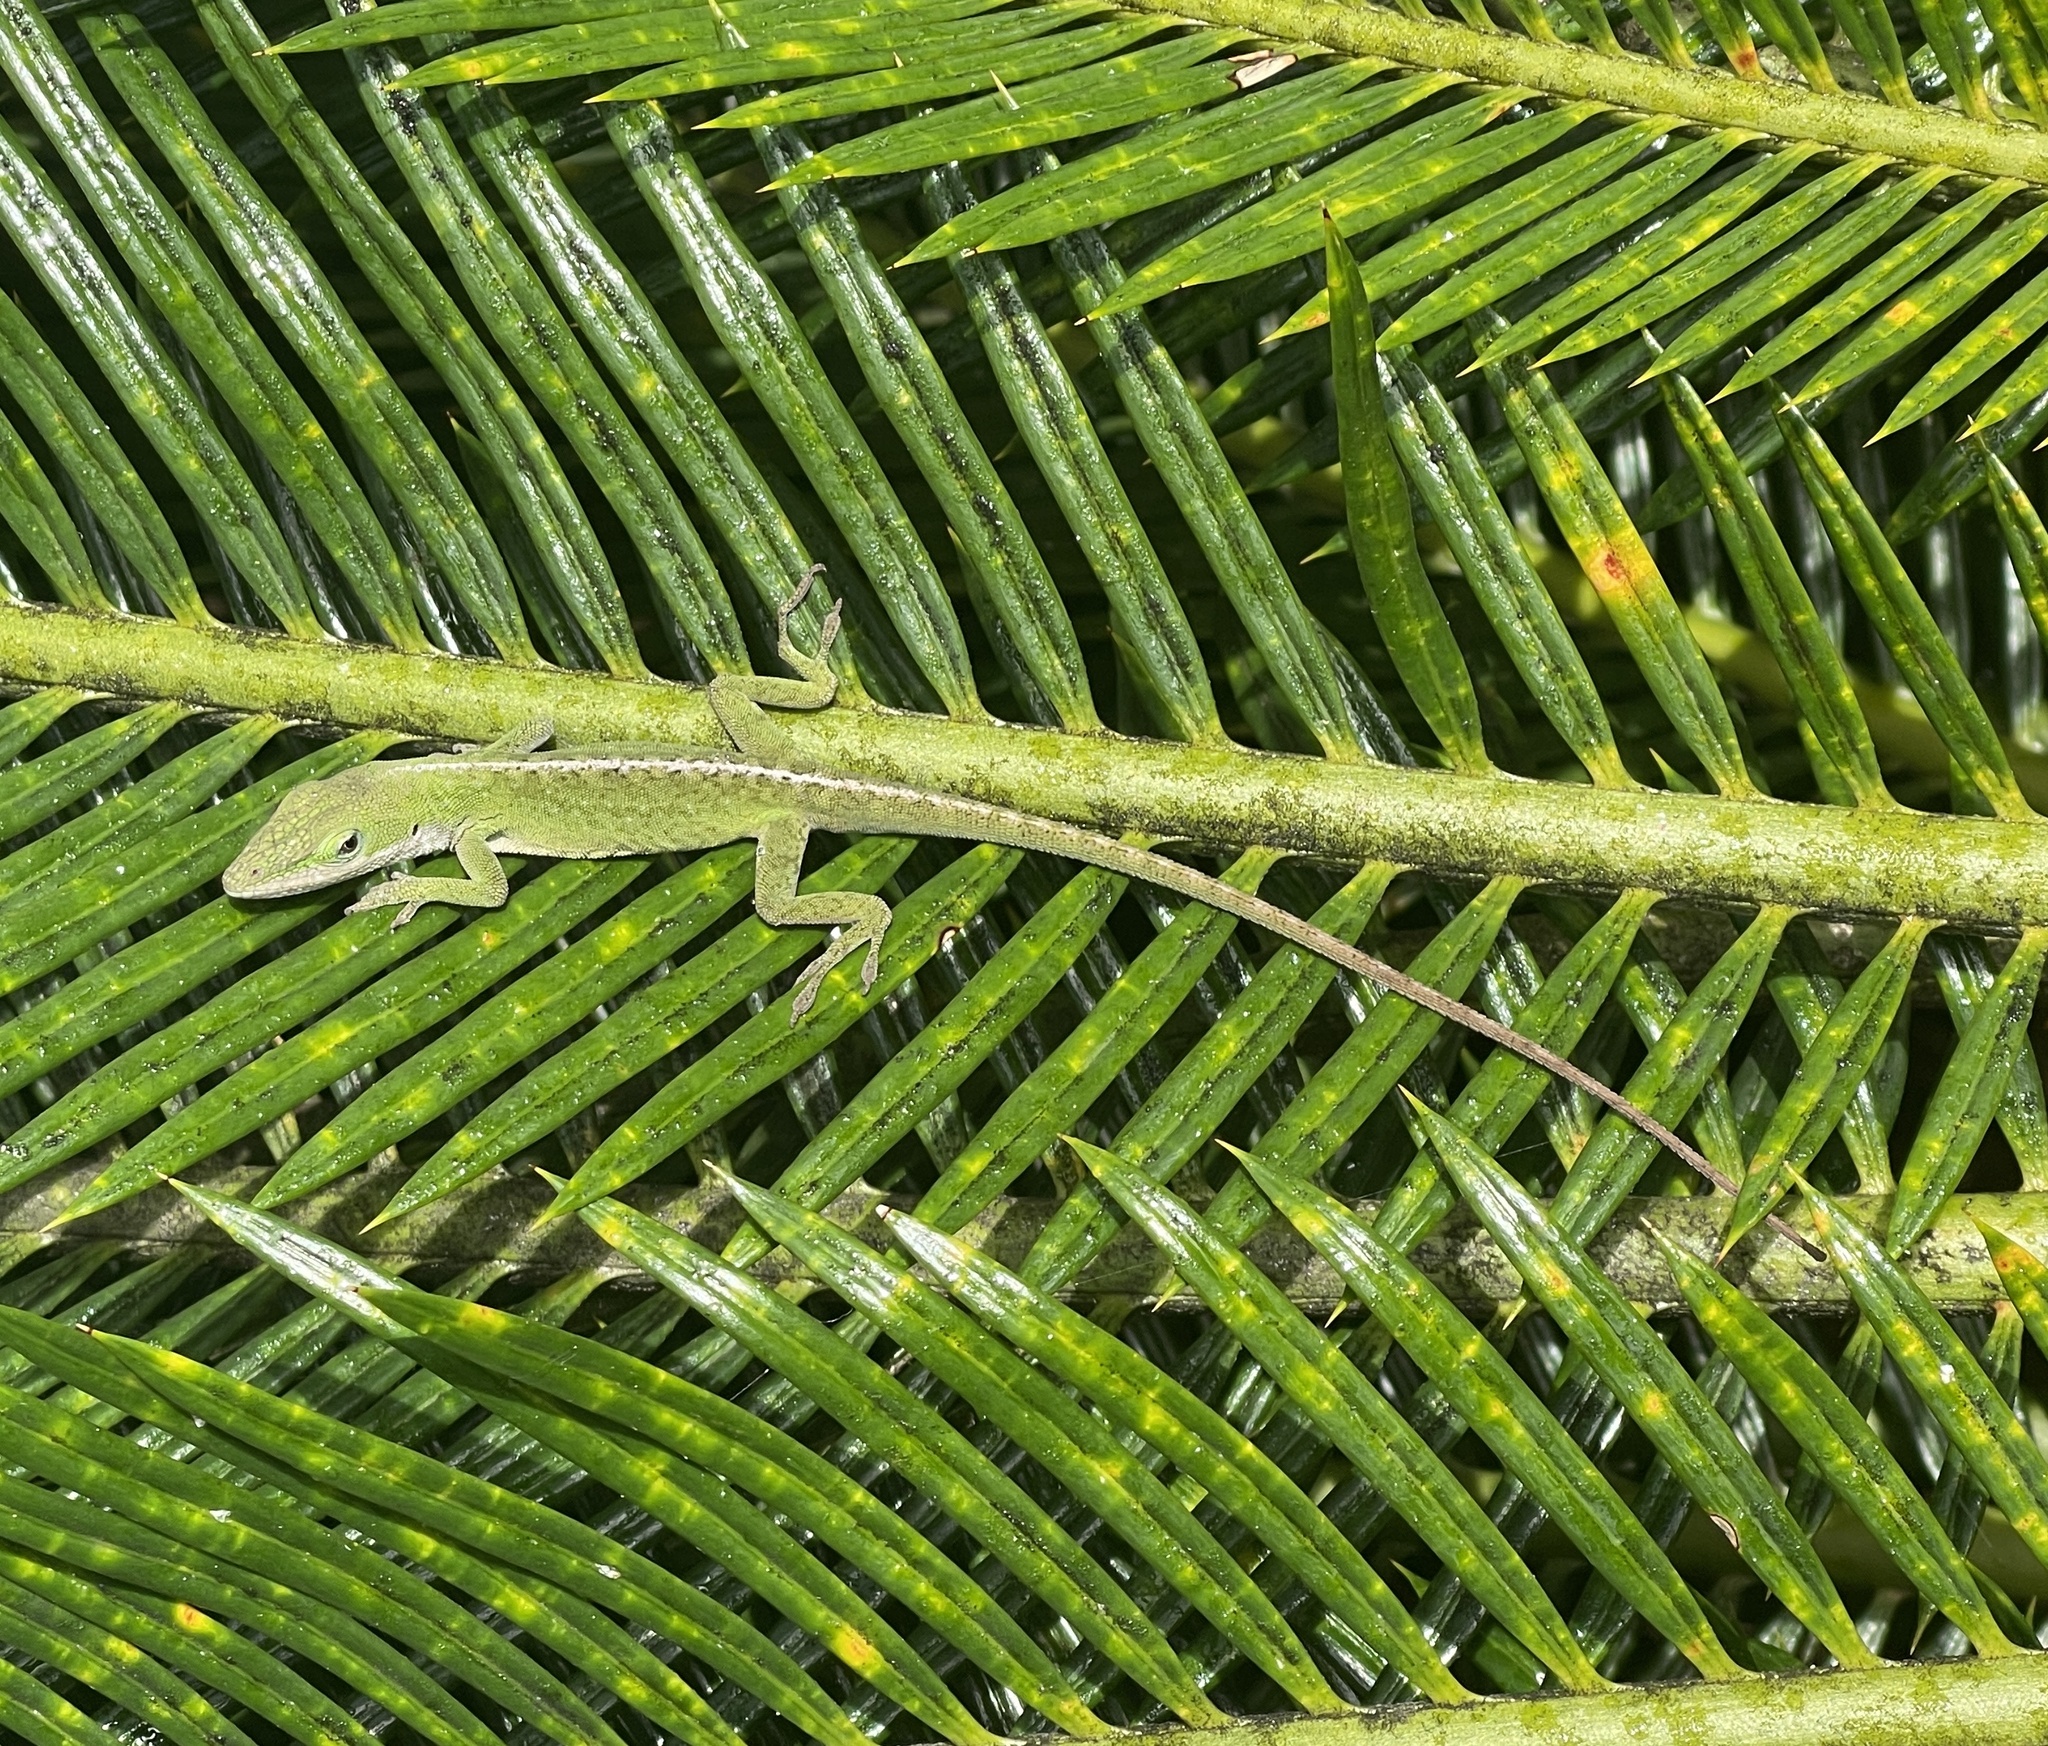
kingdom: Animalia
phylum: Chordata
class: Squamata
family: Dactyloidae
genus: Anolis
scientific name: Anolis carolinensis
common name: Green anole
